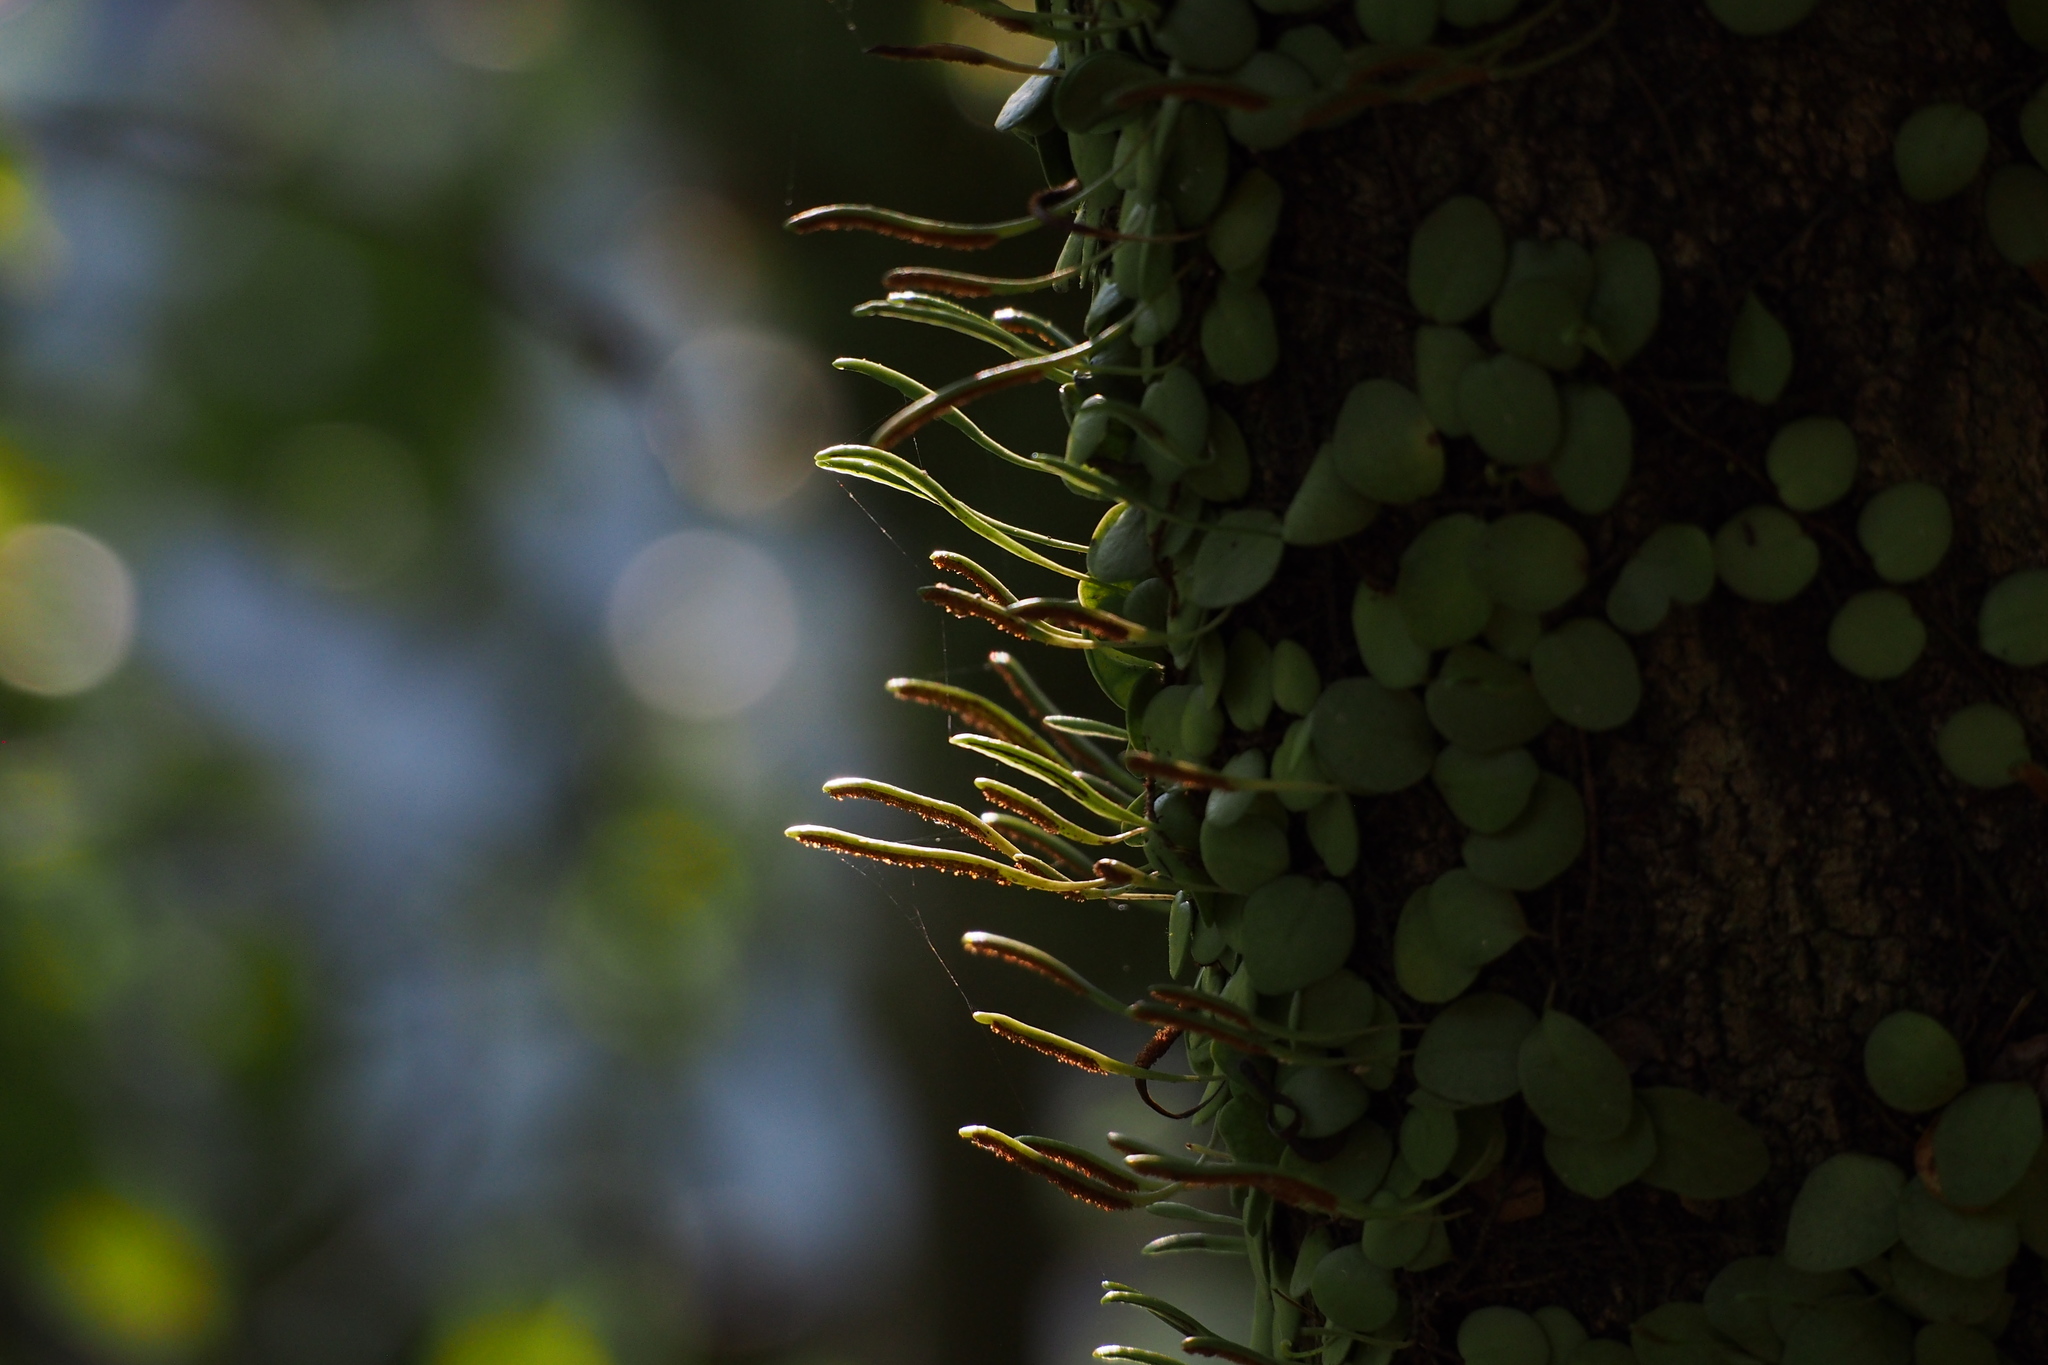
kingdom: Plantae
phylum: Tracheophyta
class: Polypodiopsida
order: Polypodiales
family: Polypodiaceae
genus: Lepisorus
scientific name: Lepisorus microphyllus
